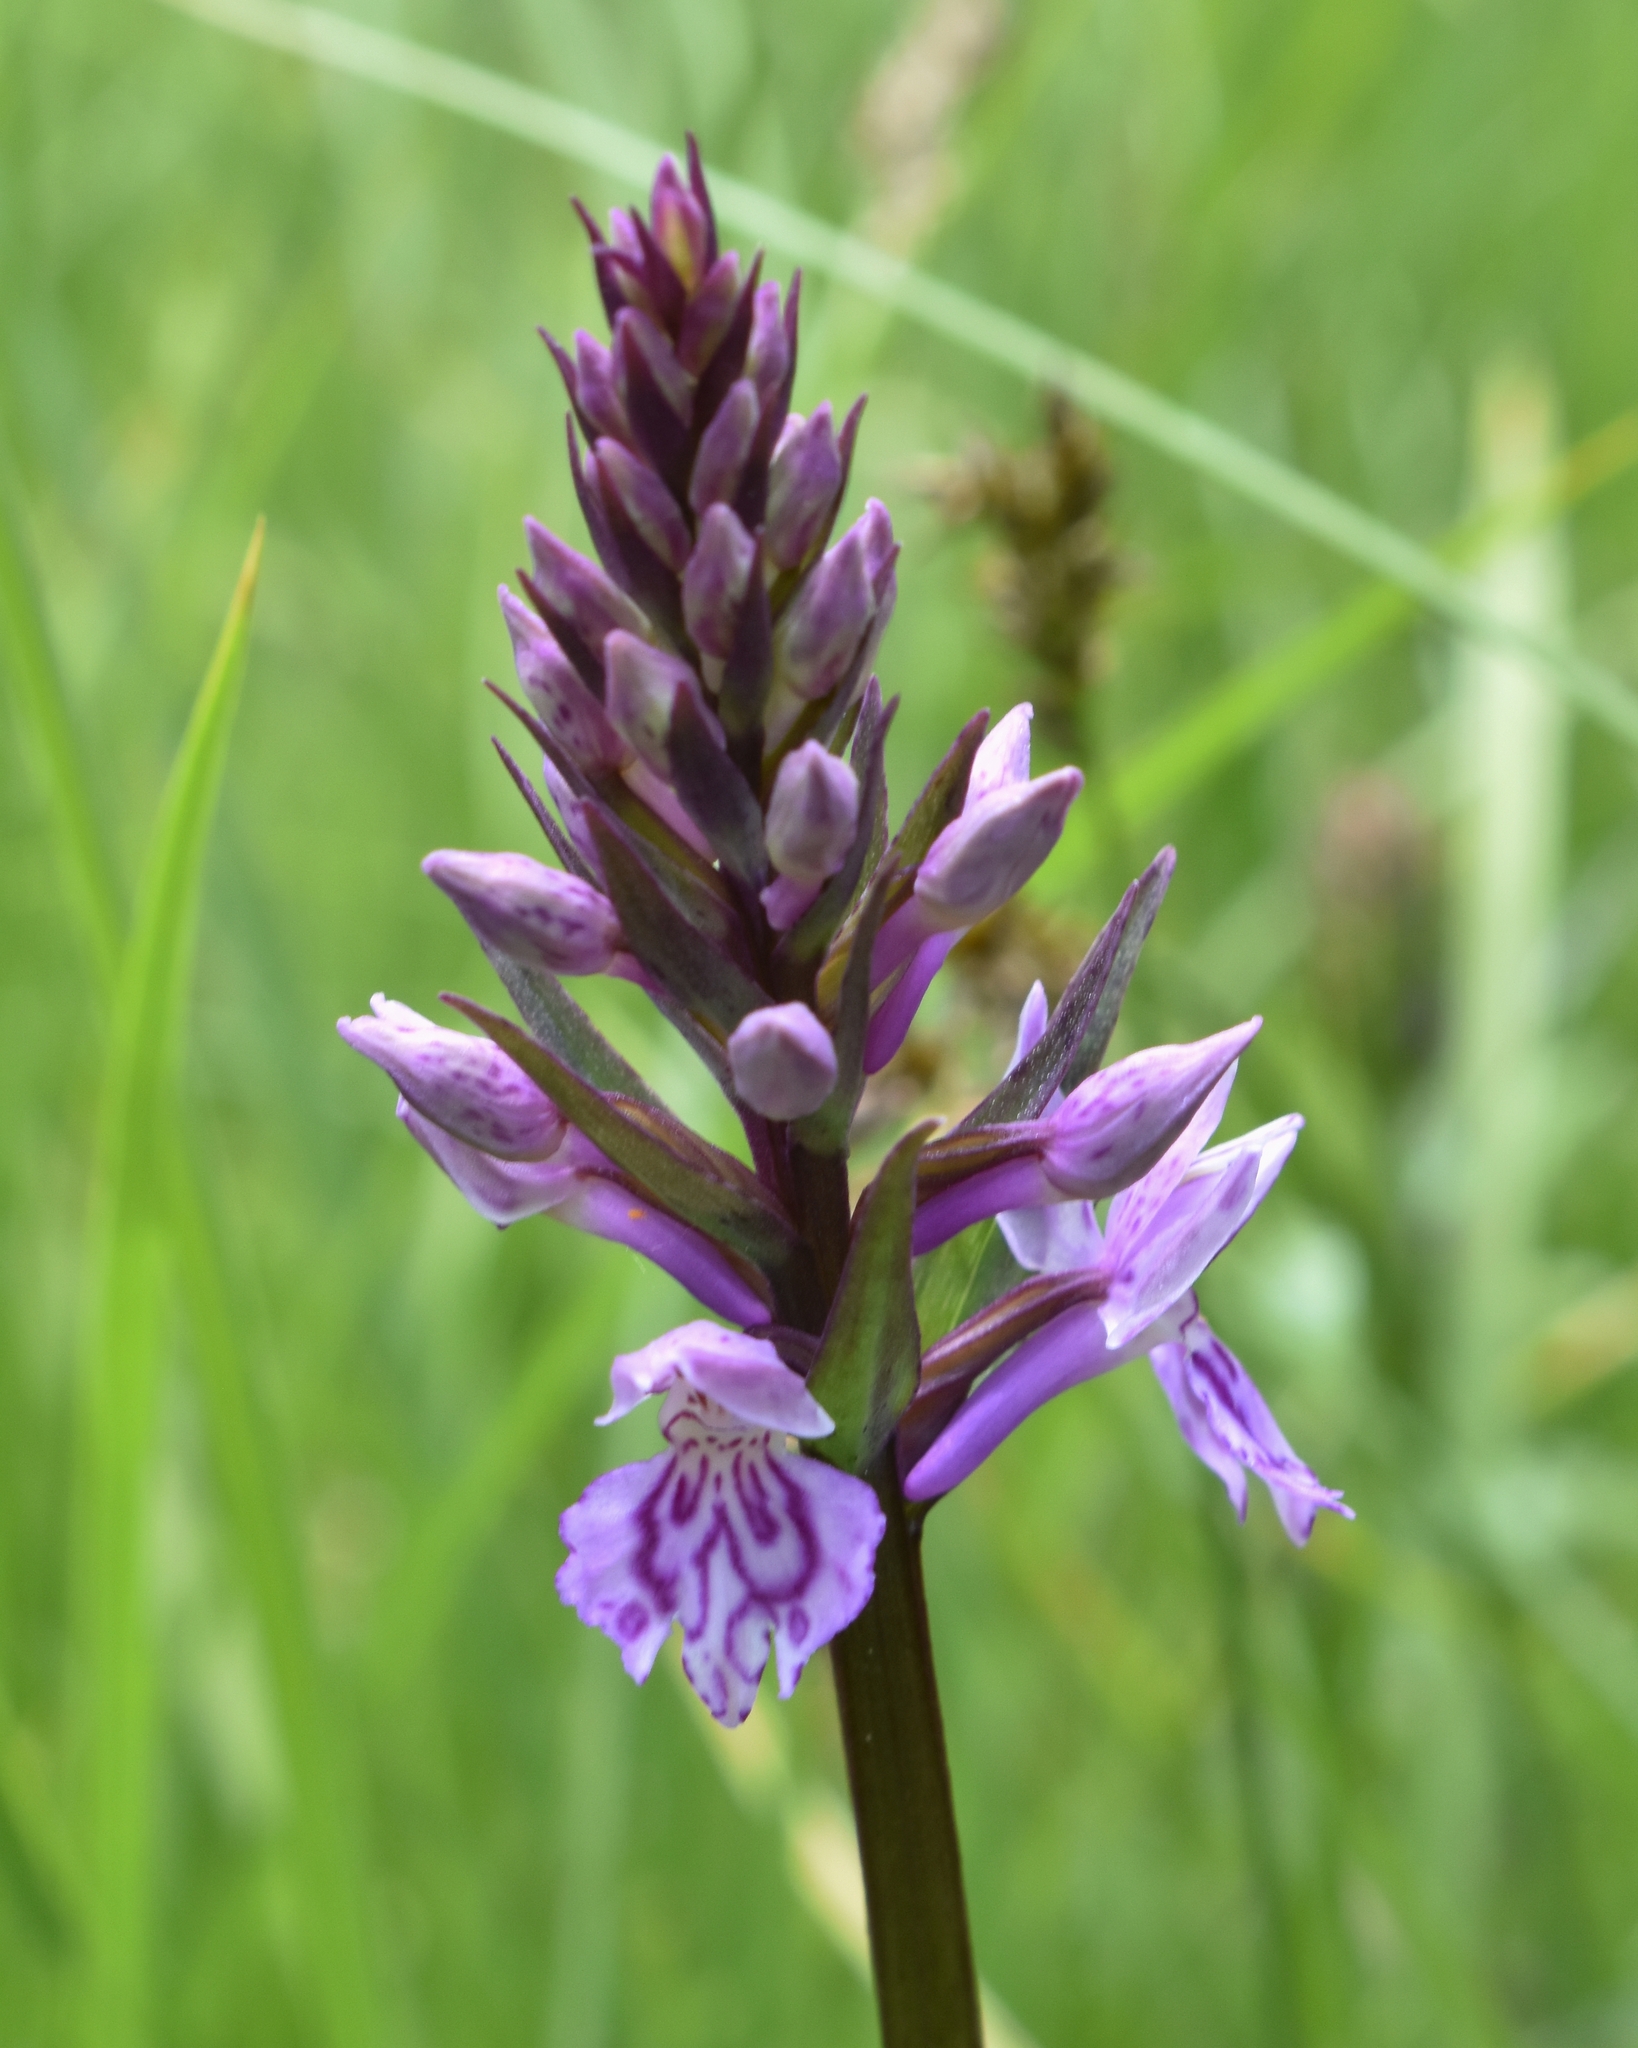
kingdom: Plantae
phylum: Tracheophyta
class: Liliopsida
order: Asparagales
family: Orchidaceae
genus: Dactylorhiza
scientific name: Dactylorhiza maculata
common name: Heath spotted-orchid
